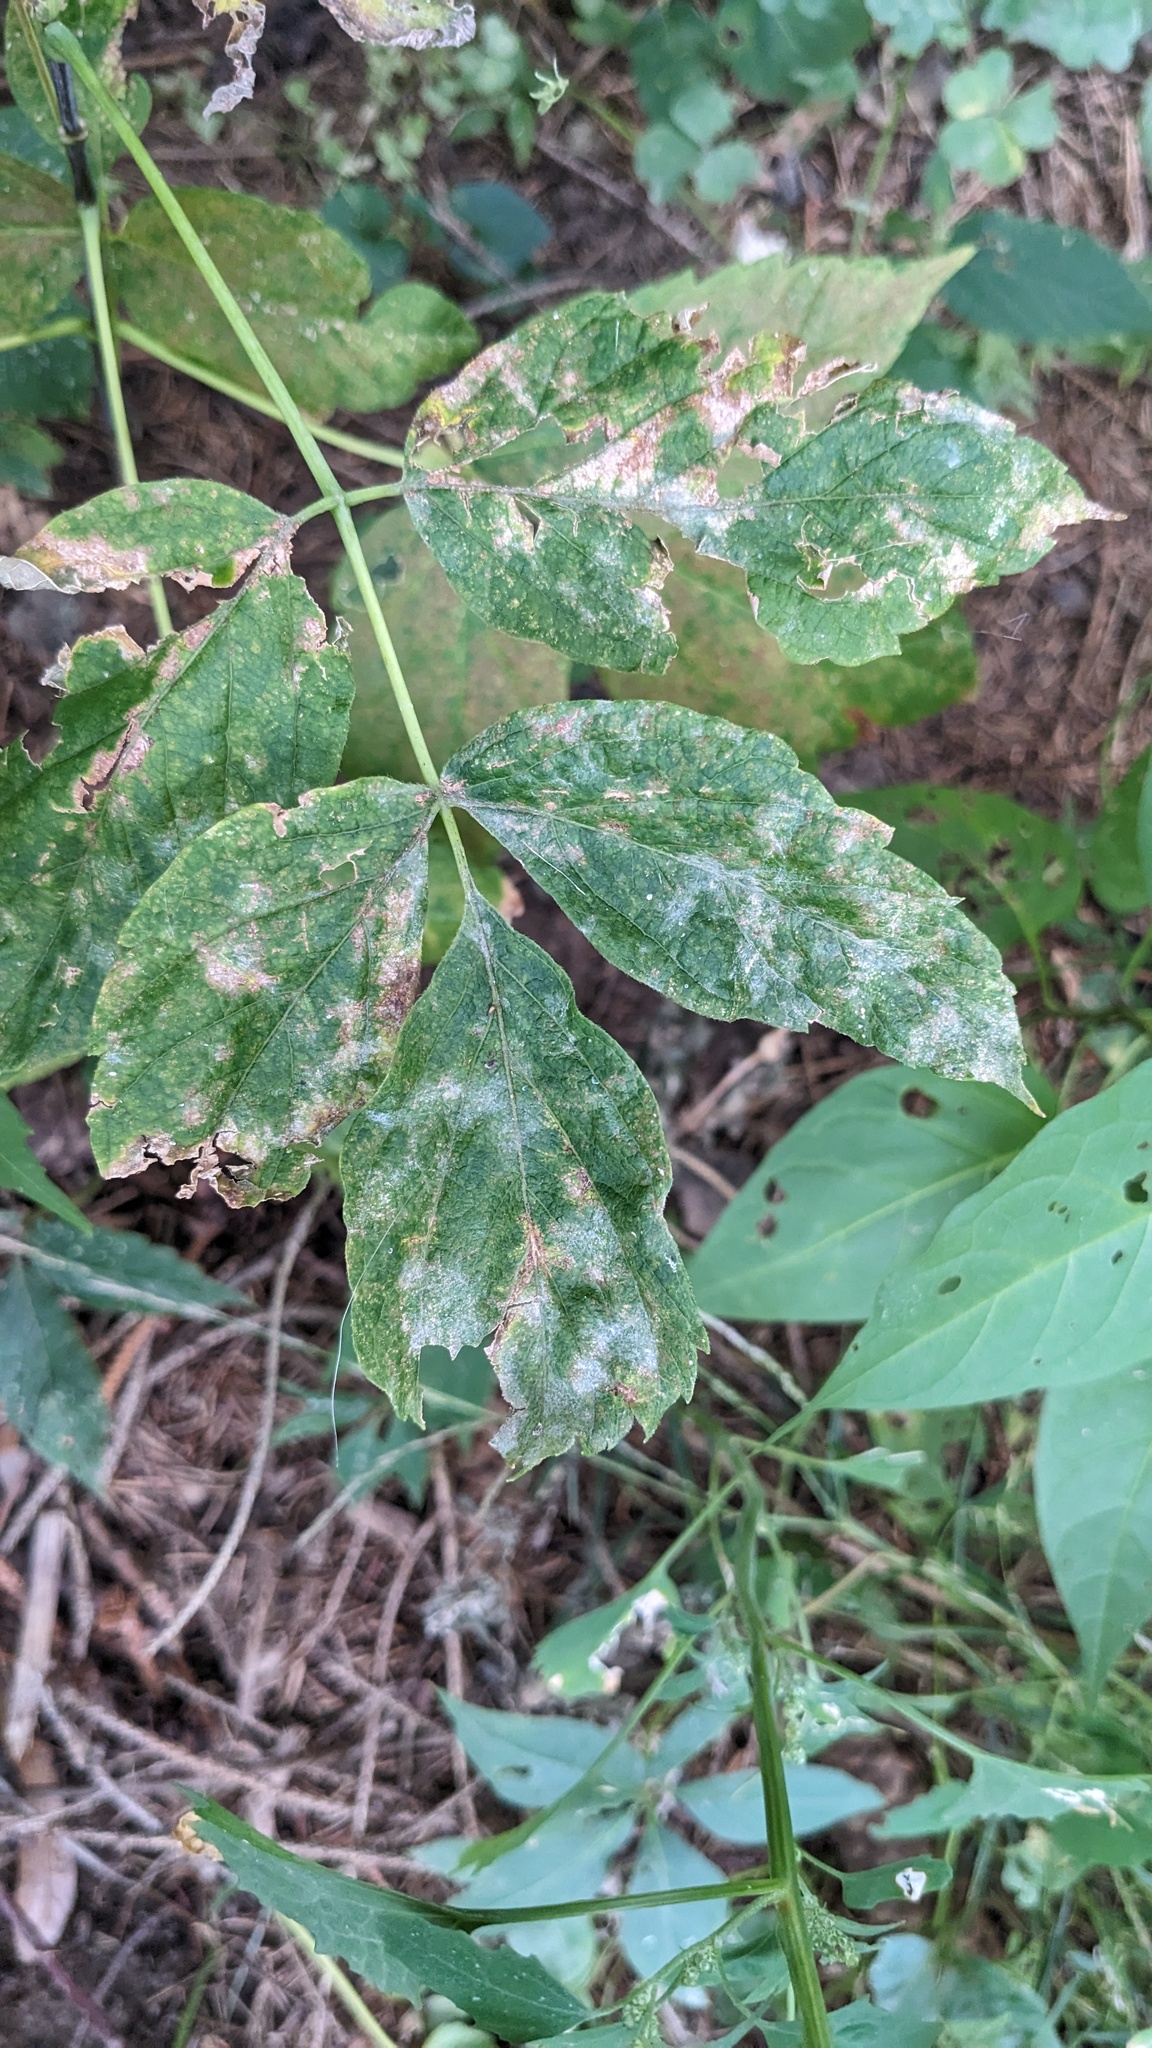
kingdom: Plantae
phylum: Tracheophyta
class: Magnoliopsida
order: Sapindales
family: Sapindaceae
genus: Acer
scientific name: Acer negundo
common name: Ashleaf maple
